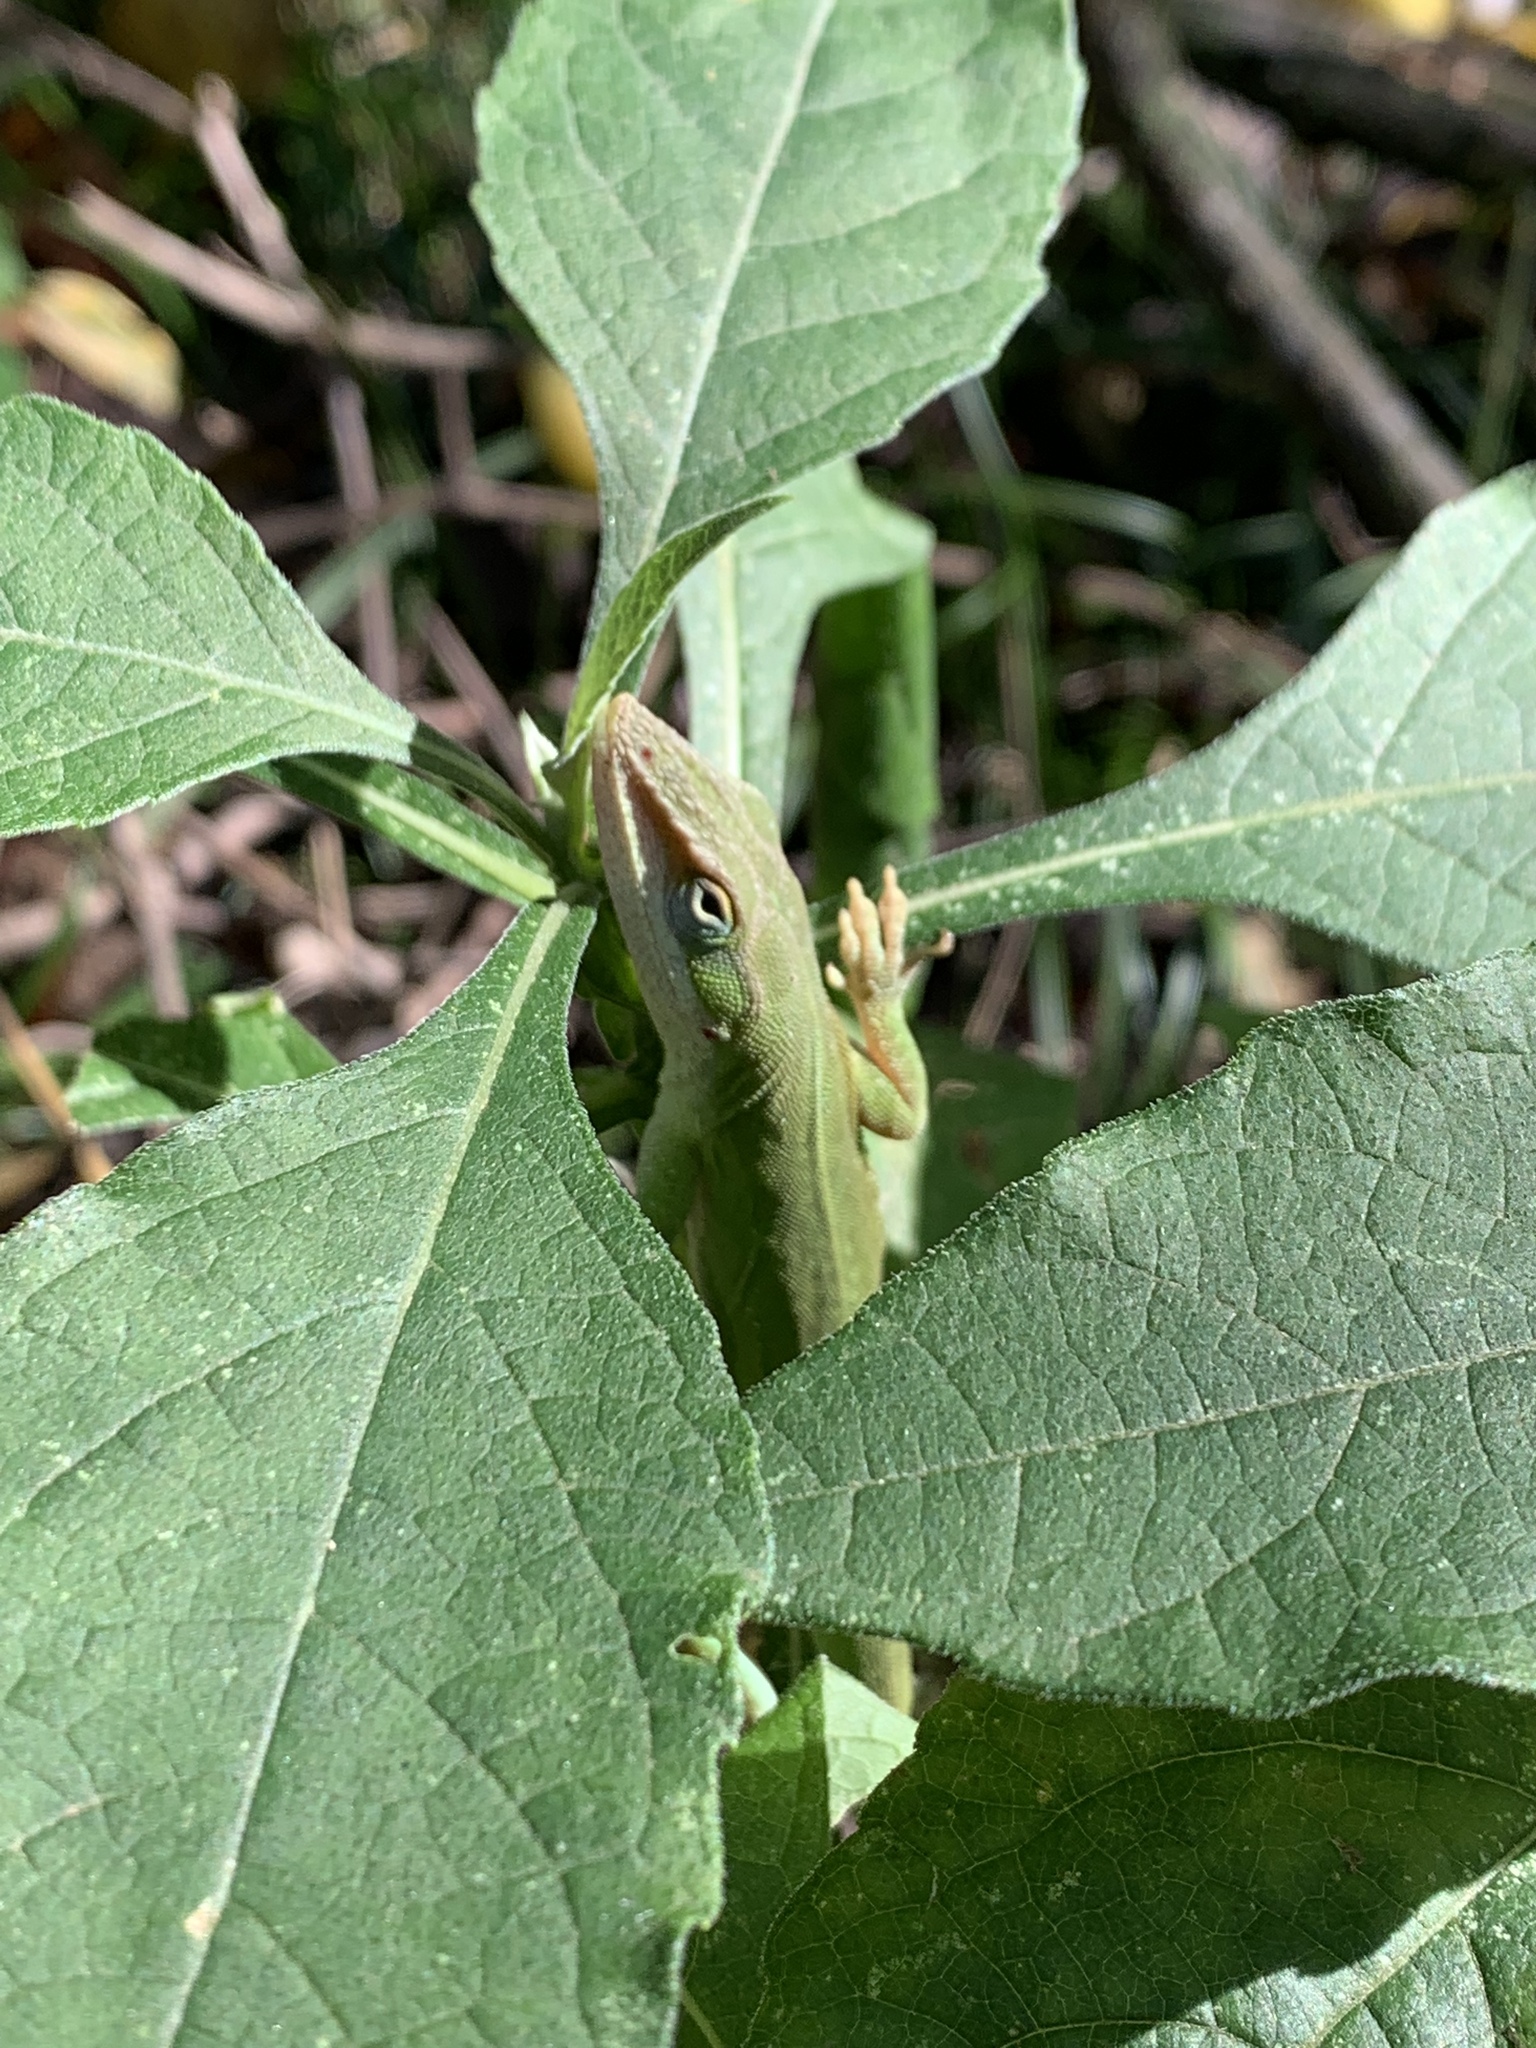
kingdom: Animalia
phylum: Chordata
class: Squamata
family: Dactyloidae
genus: Anolis
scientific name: Anolis carolinensis
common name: Green anole
